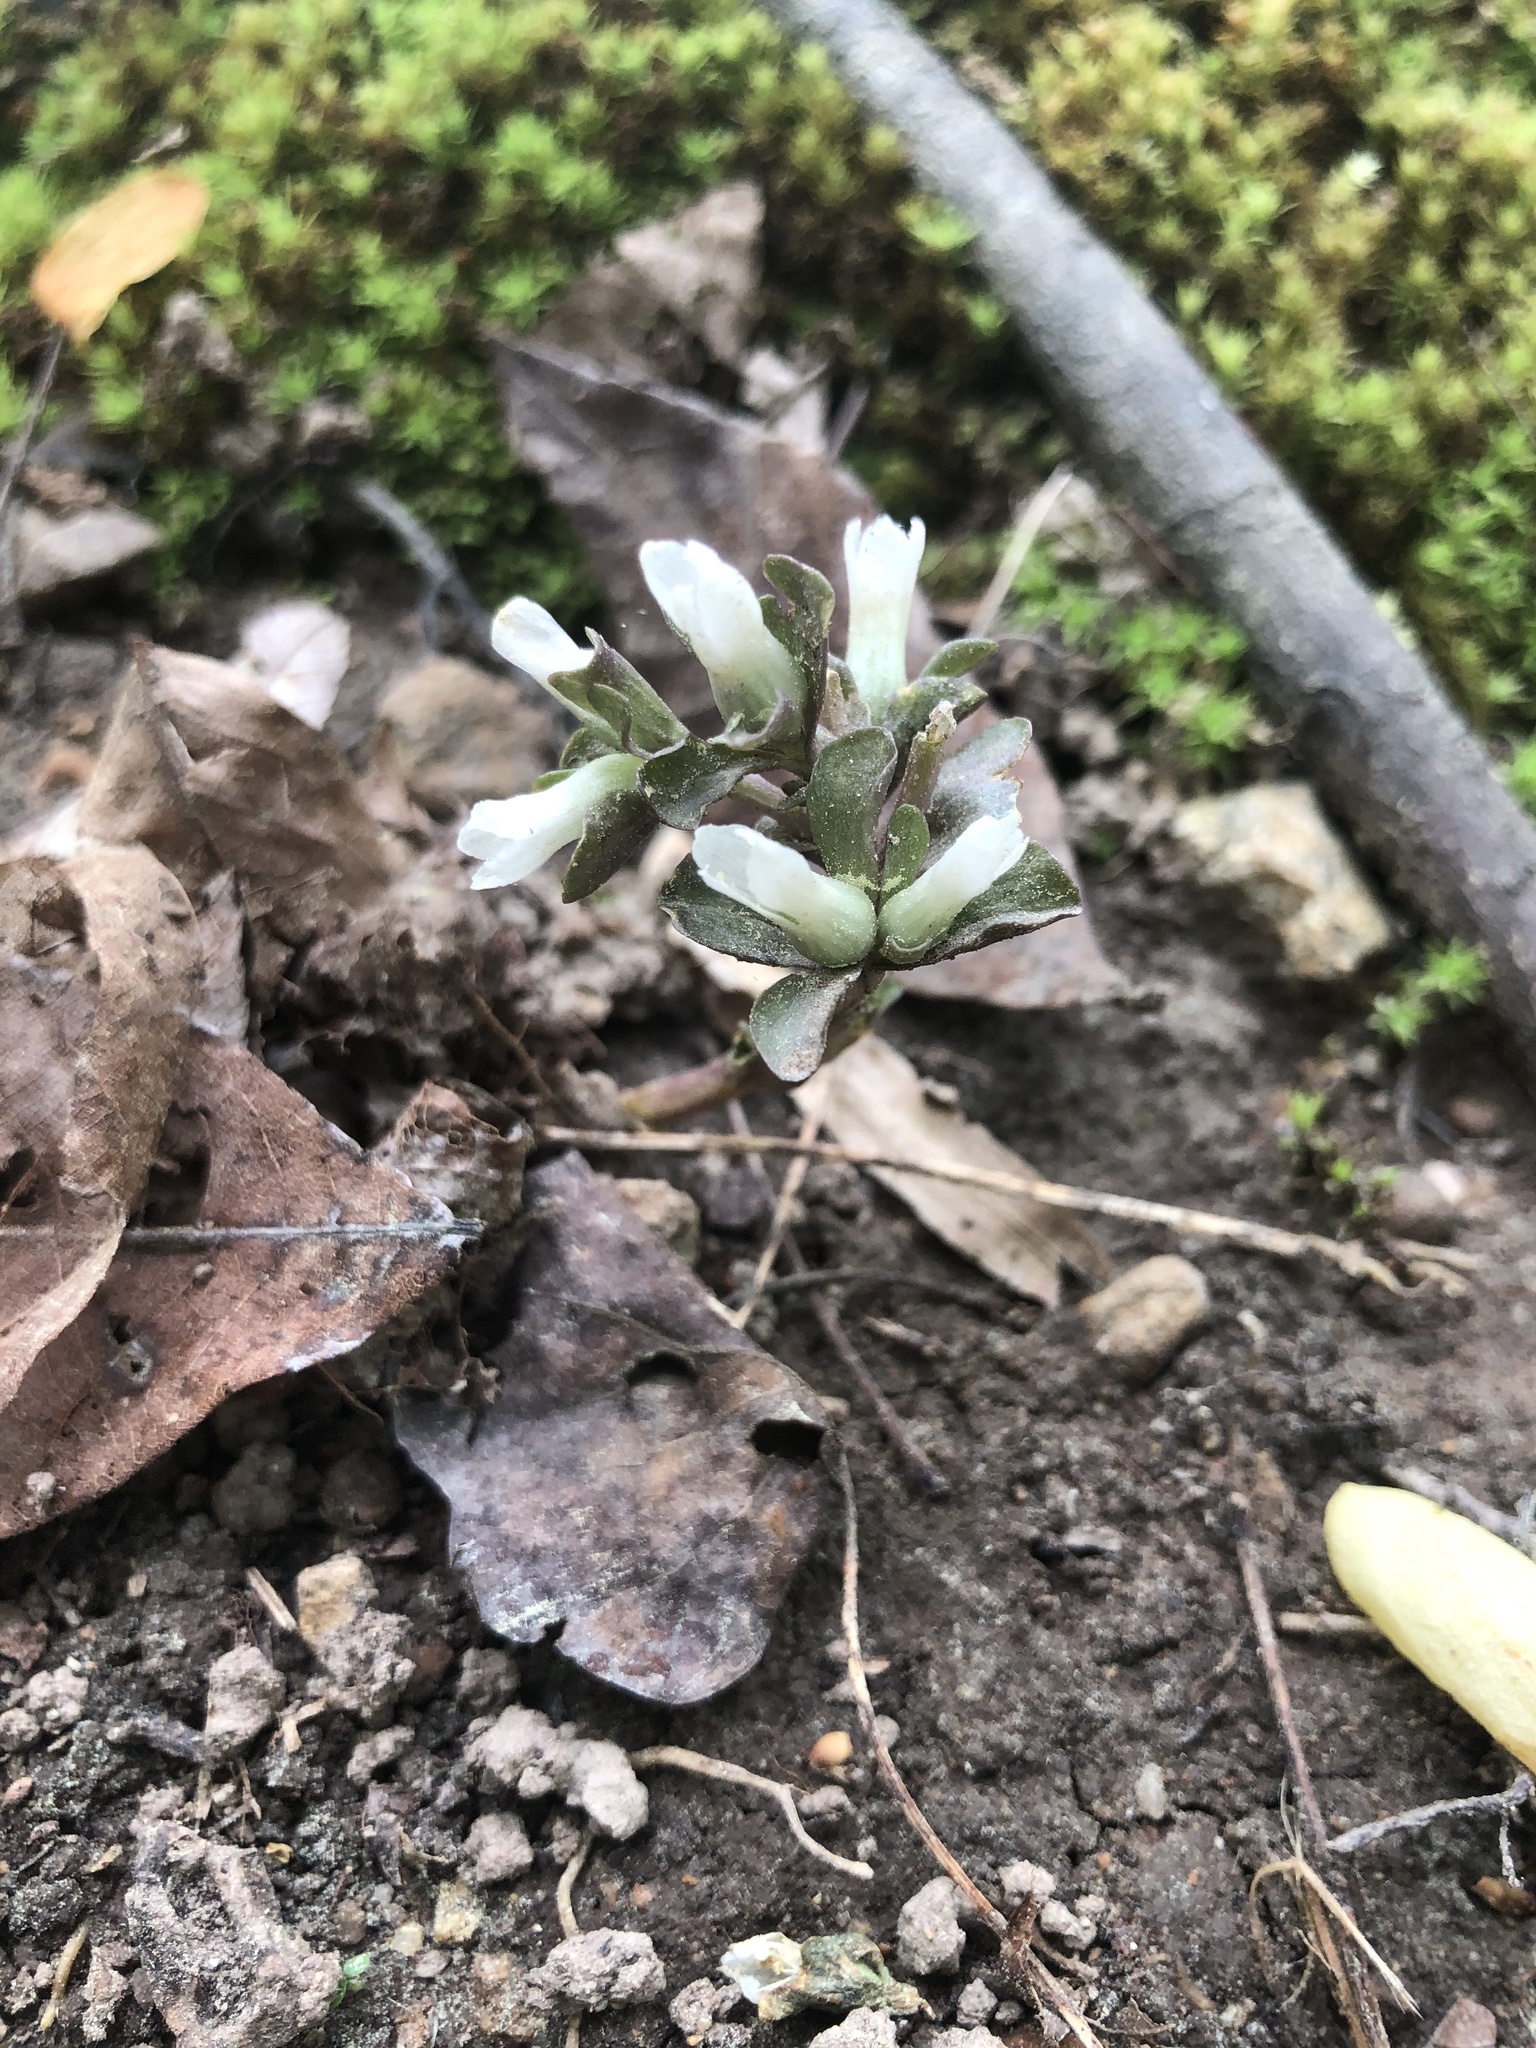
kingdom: Plantae
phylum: Tracheophyta
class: Magnoliopsida
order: Gentianales
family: Gentianaceae
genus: Obolaria
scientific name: Obolaria virginica
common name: Pennywort
